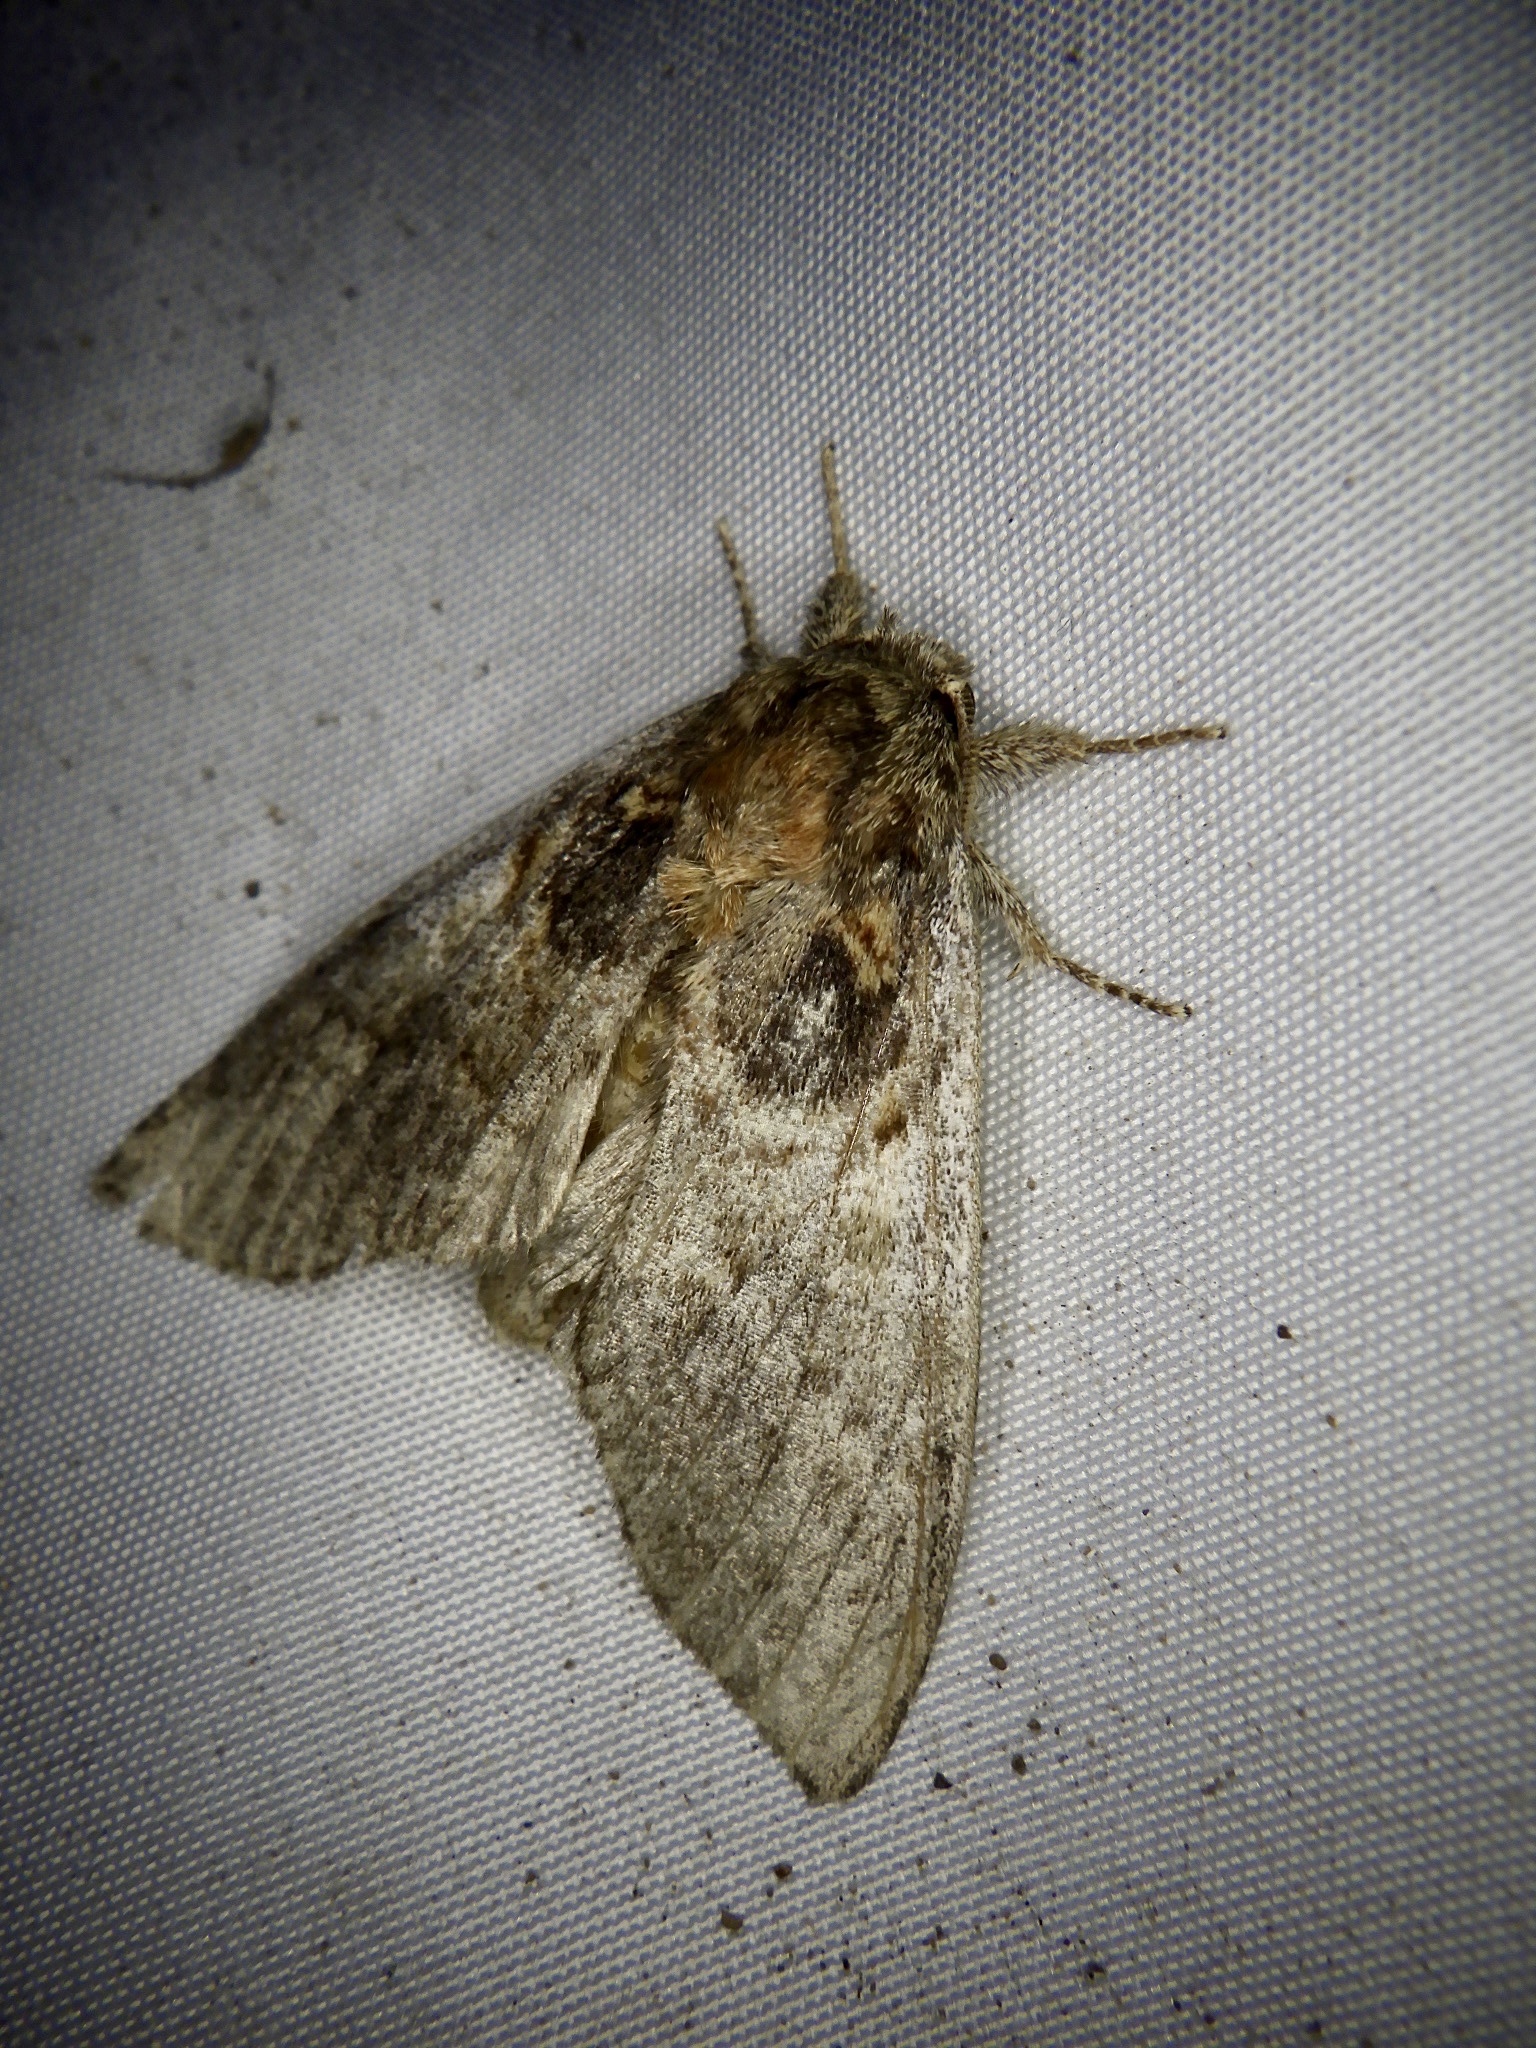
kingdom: Animalia
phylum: Arthropoda
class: Insecta
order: Lepidoptera
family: Notodontidae
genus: Peridea
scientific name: Peridea rotundata
